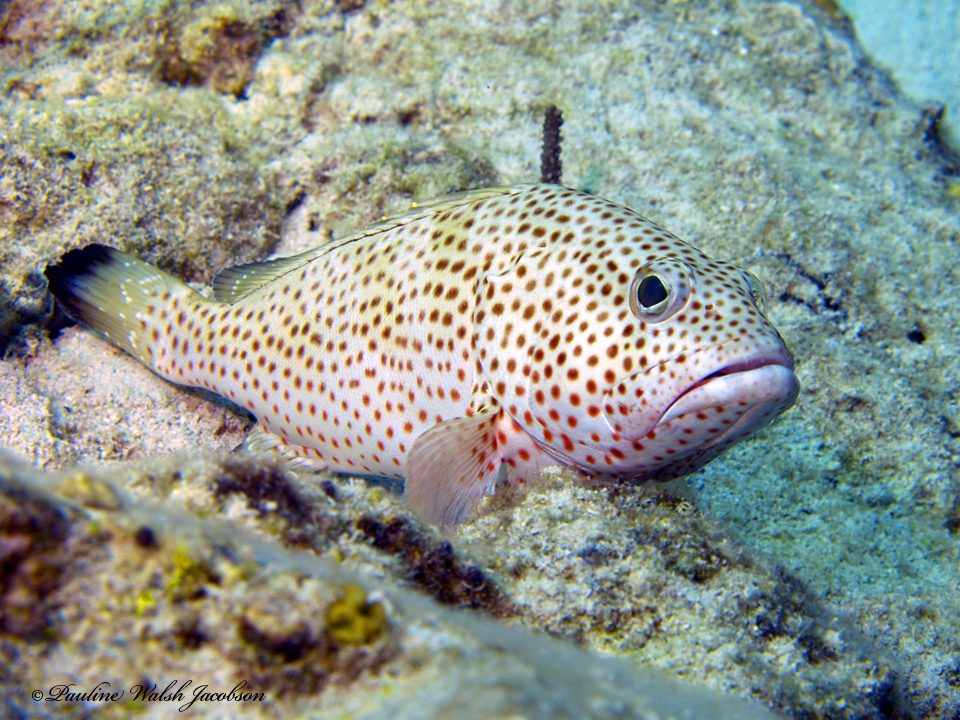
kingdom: Animalia
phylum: Chordata
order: Perciformes
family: Serranidae
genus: Epinephelus
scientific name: Epinephelus guttatus
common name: Red hind
